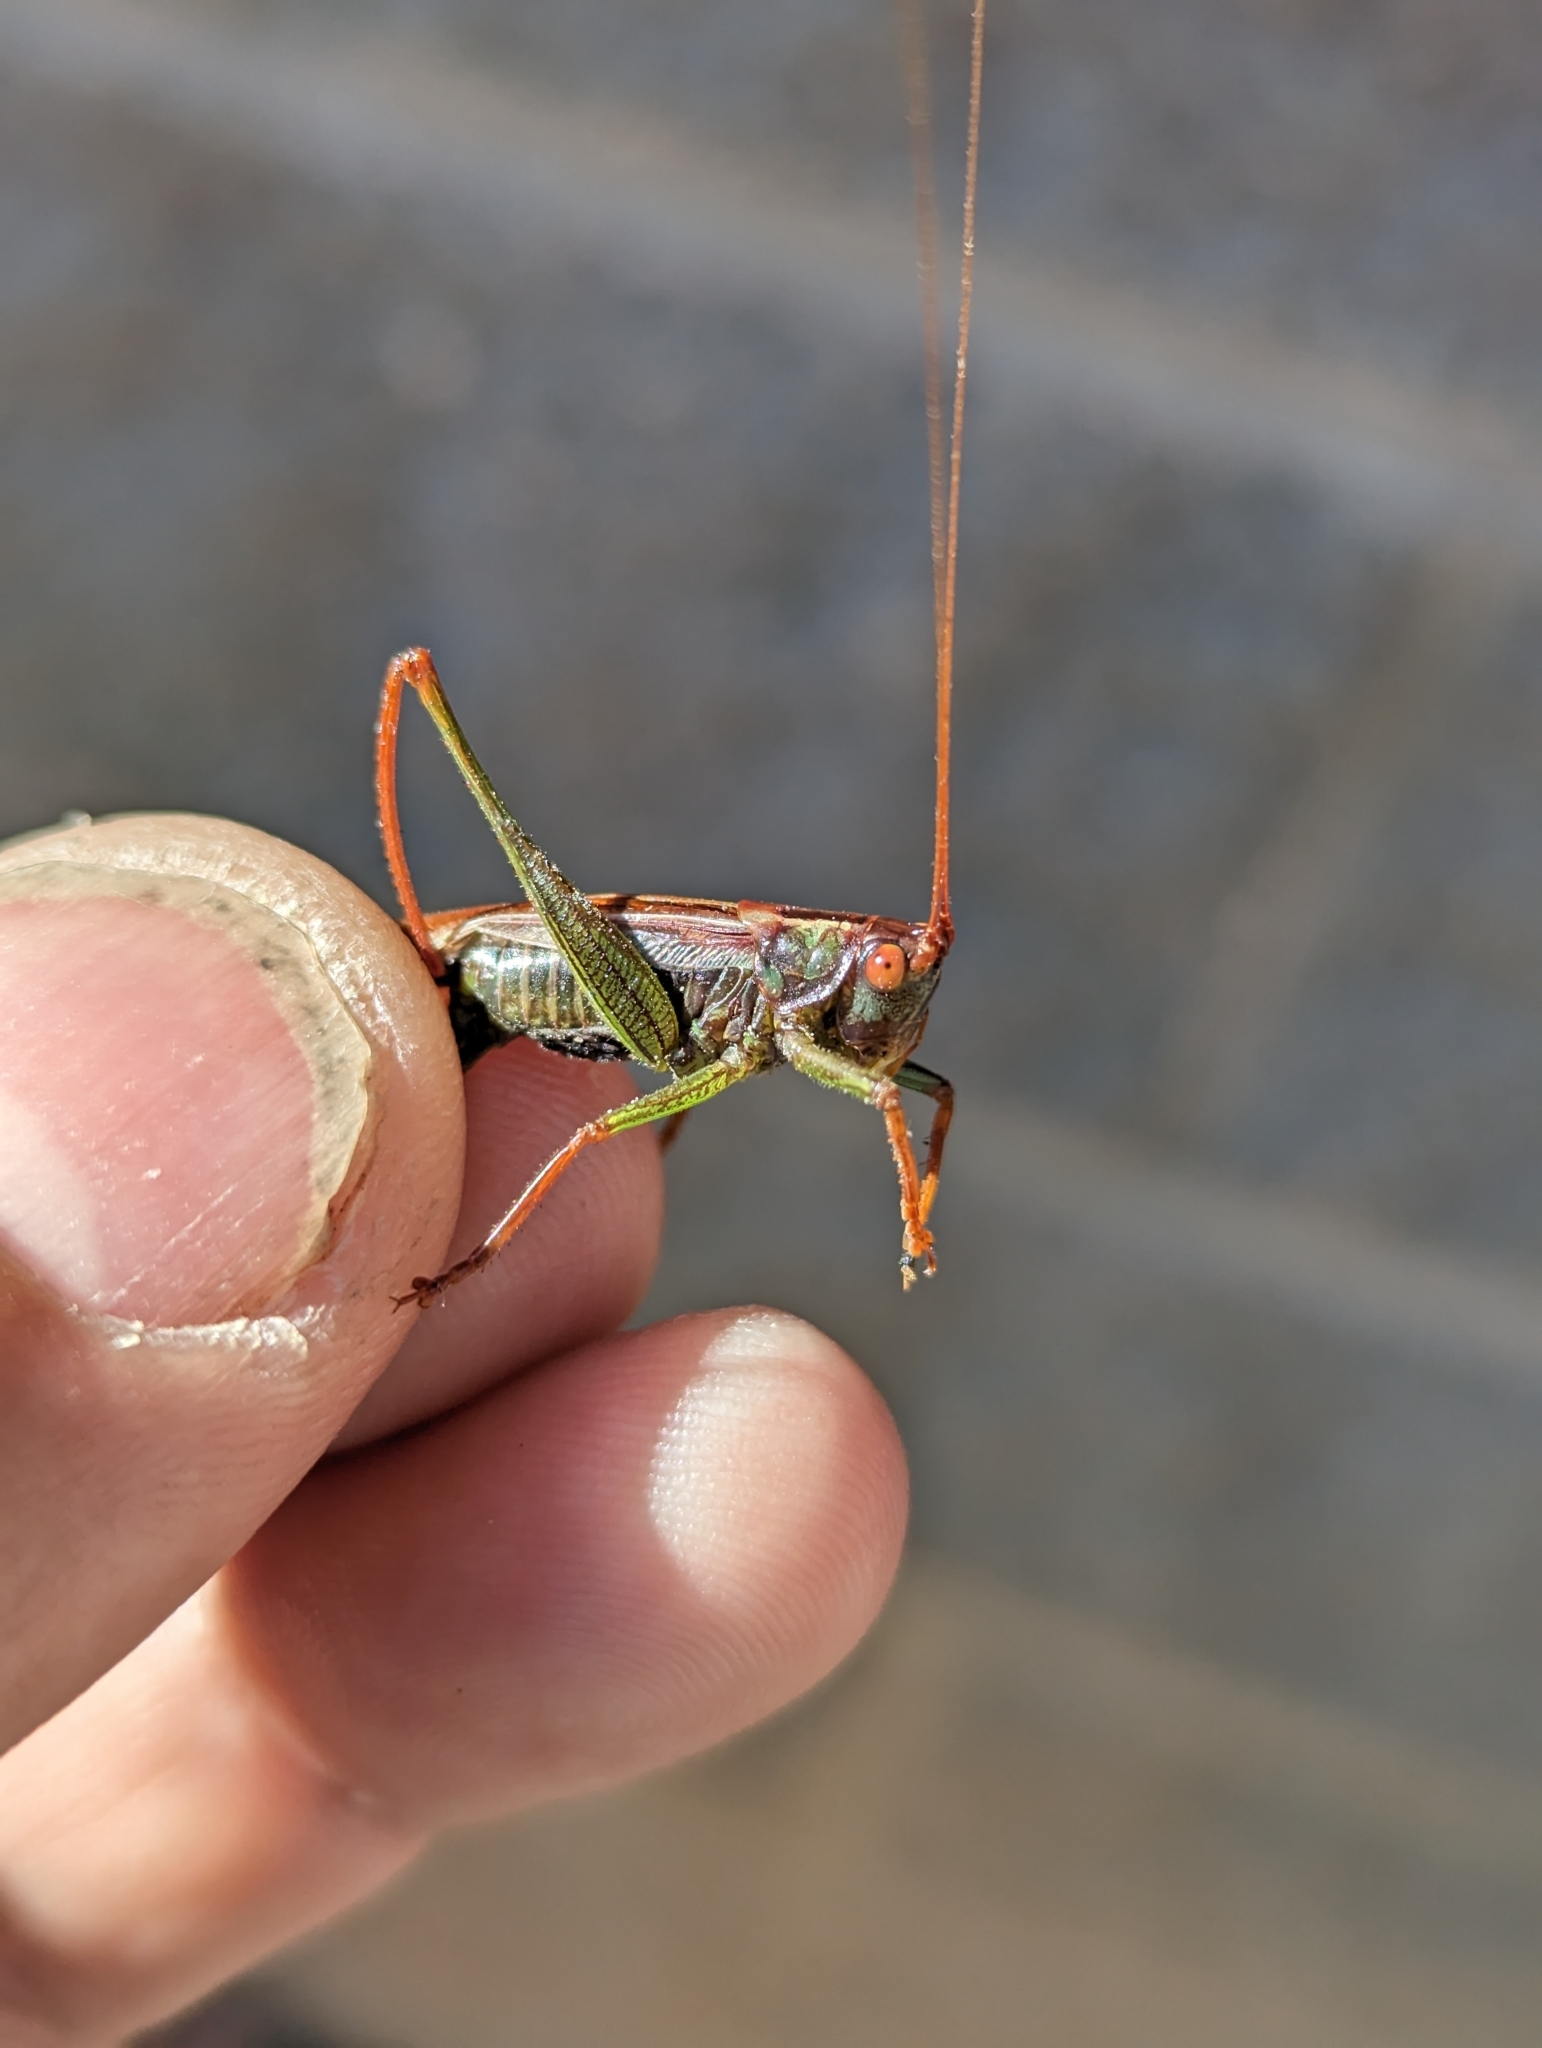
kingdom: Animalia
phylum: Arthropoda
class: Insecta
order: Orthoptera
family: Tettigoniidae
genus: Orchelimum
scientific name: Orchelimum minor
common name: Lesser pine meadow katydid
